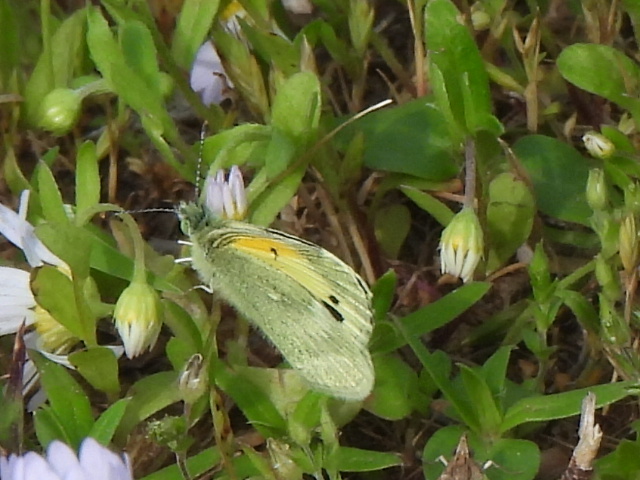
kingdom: Animalia
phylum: Arthropoda
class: Insecta
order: Lepidoptera
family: Pieridae
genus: Nathalis
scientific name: Nathalis iole
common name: Dainty sulphur
